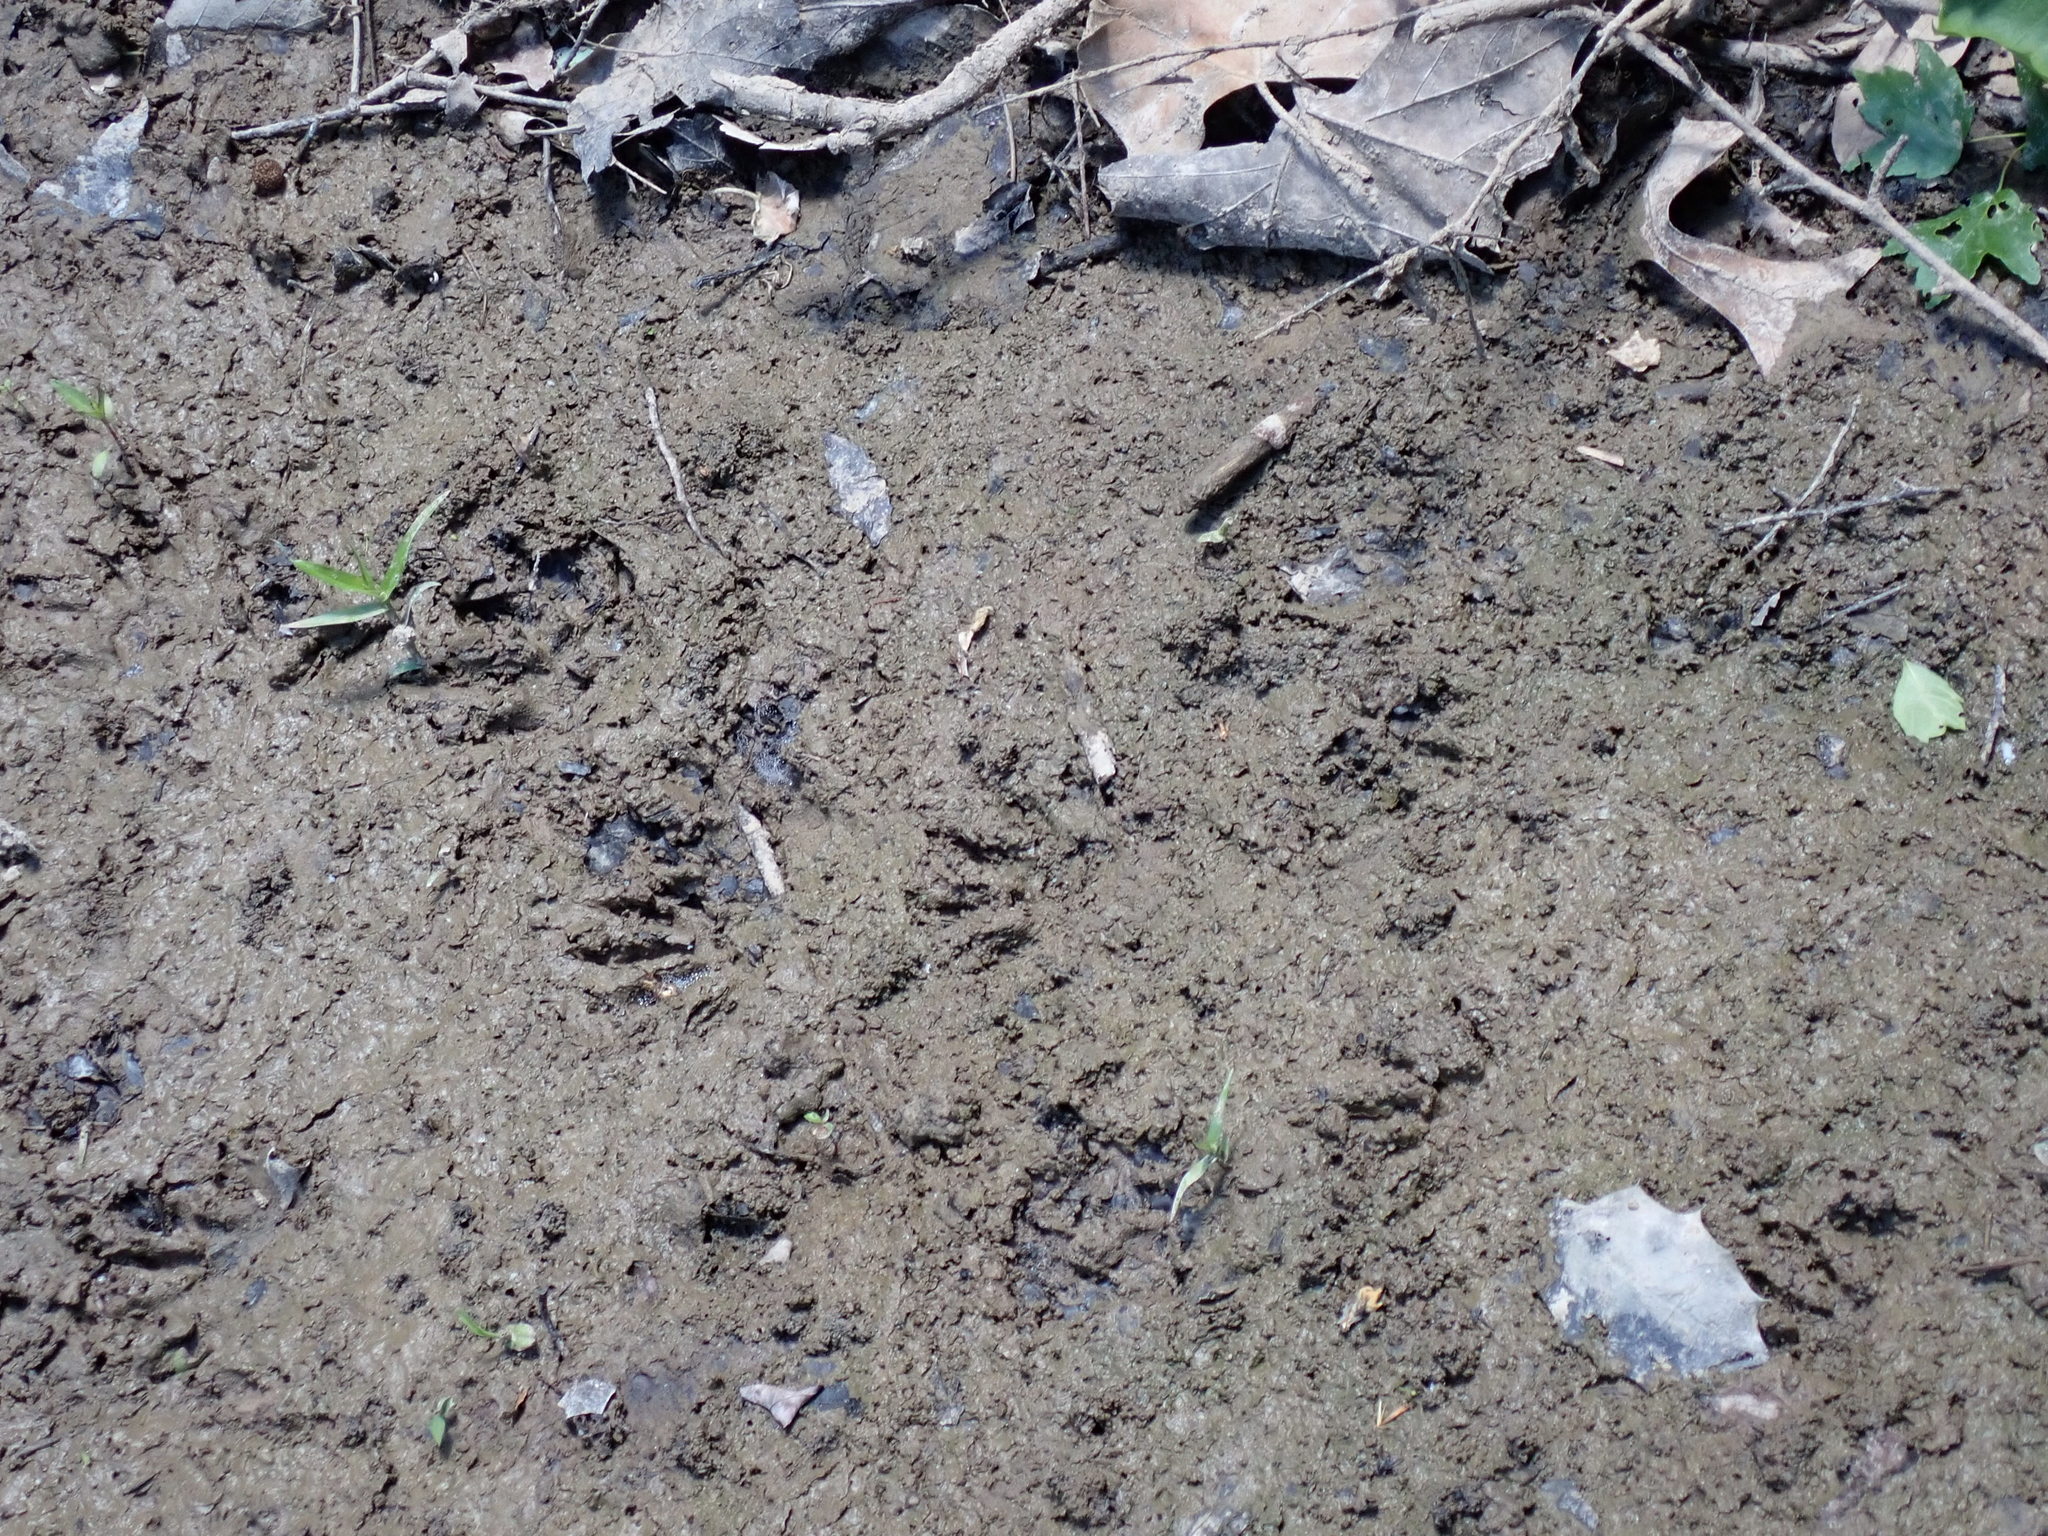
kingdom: Animalia
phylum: Chordata
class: Mammalia
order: Carnivora
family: Procyonidae
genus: Procyon
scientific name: Procyon lotor
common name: Raccoon
